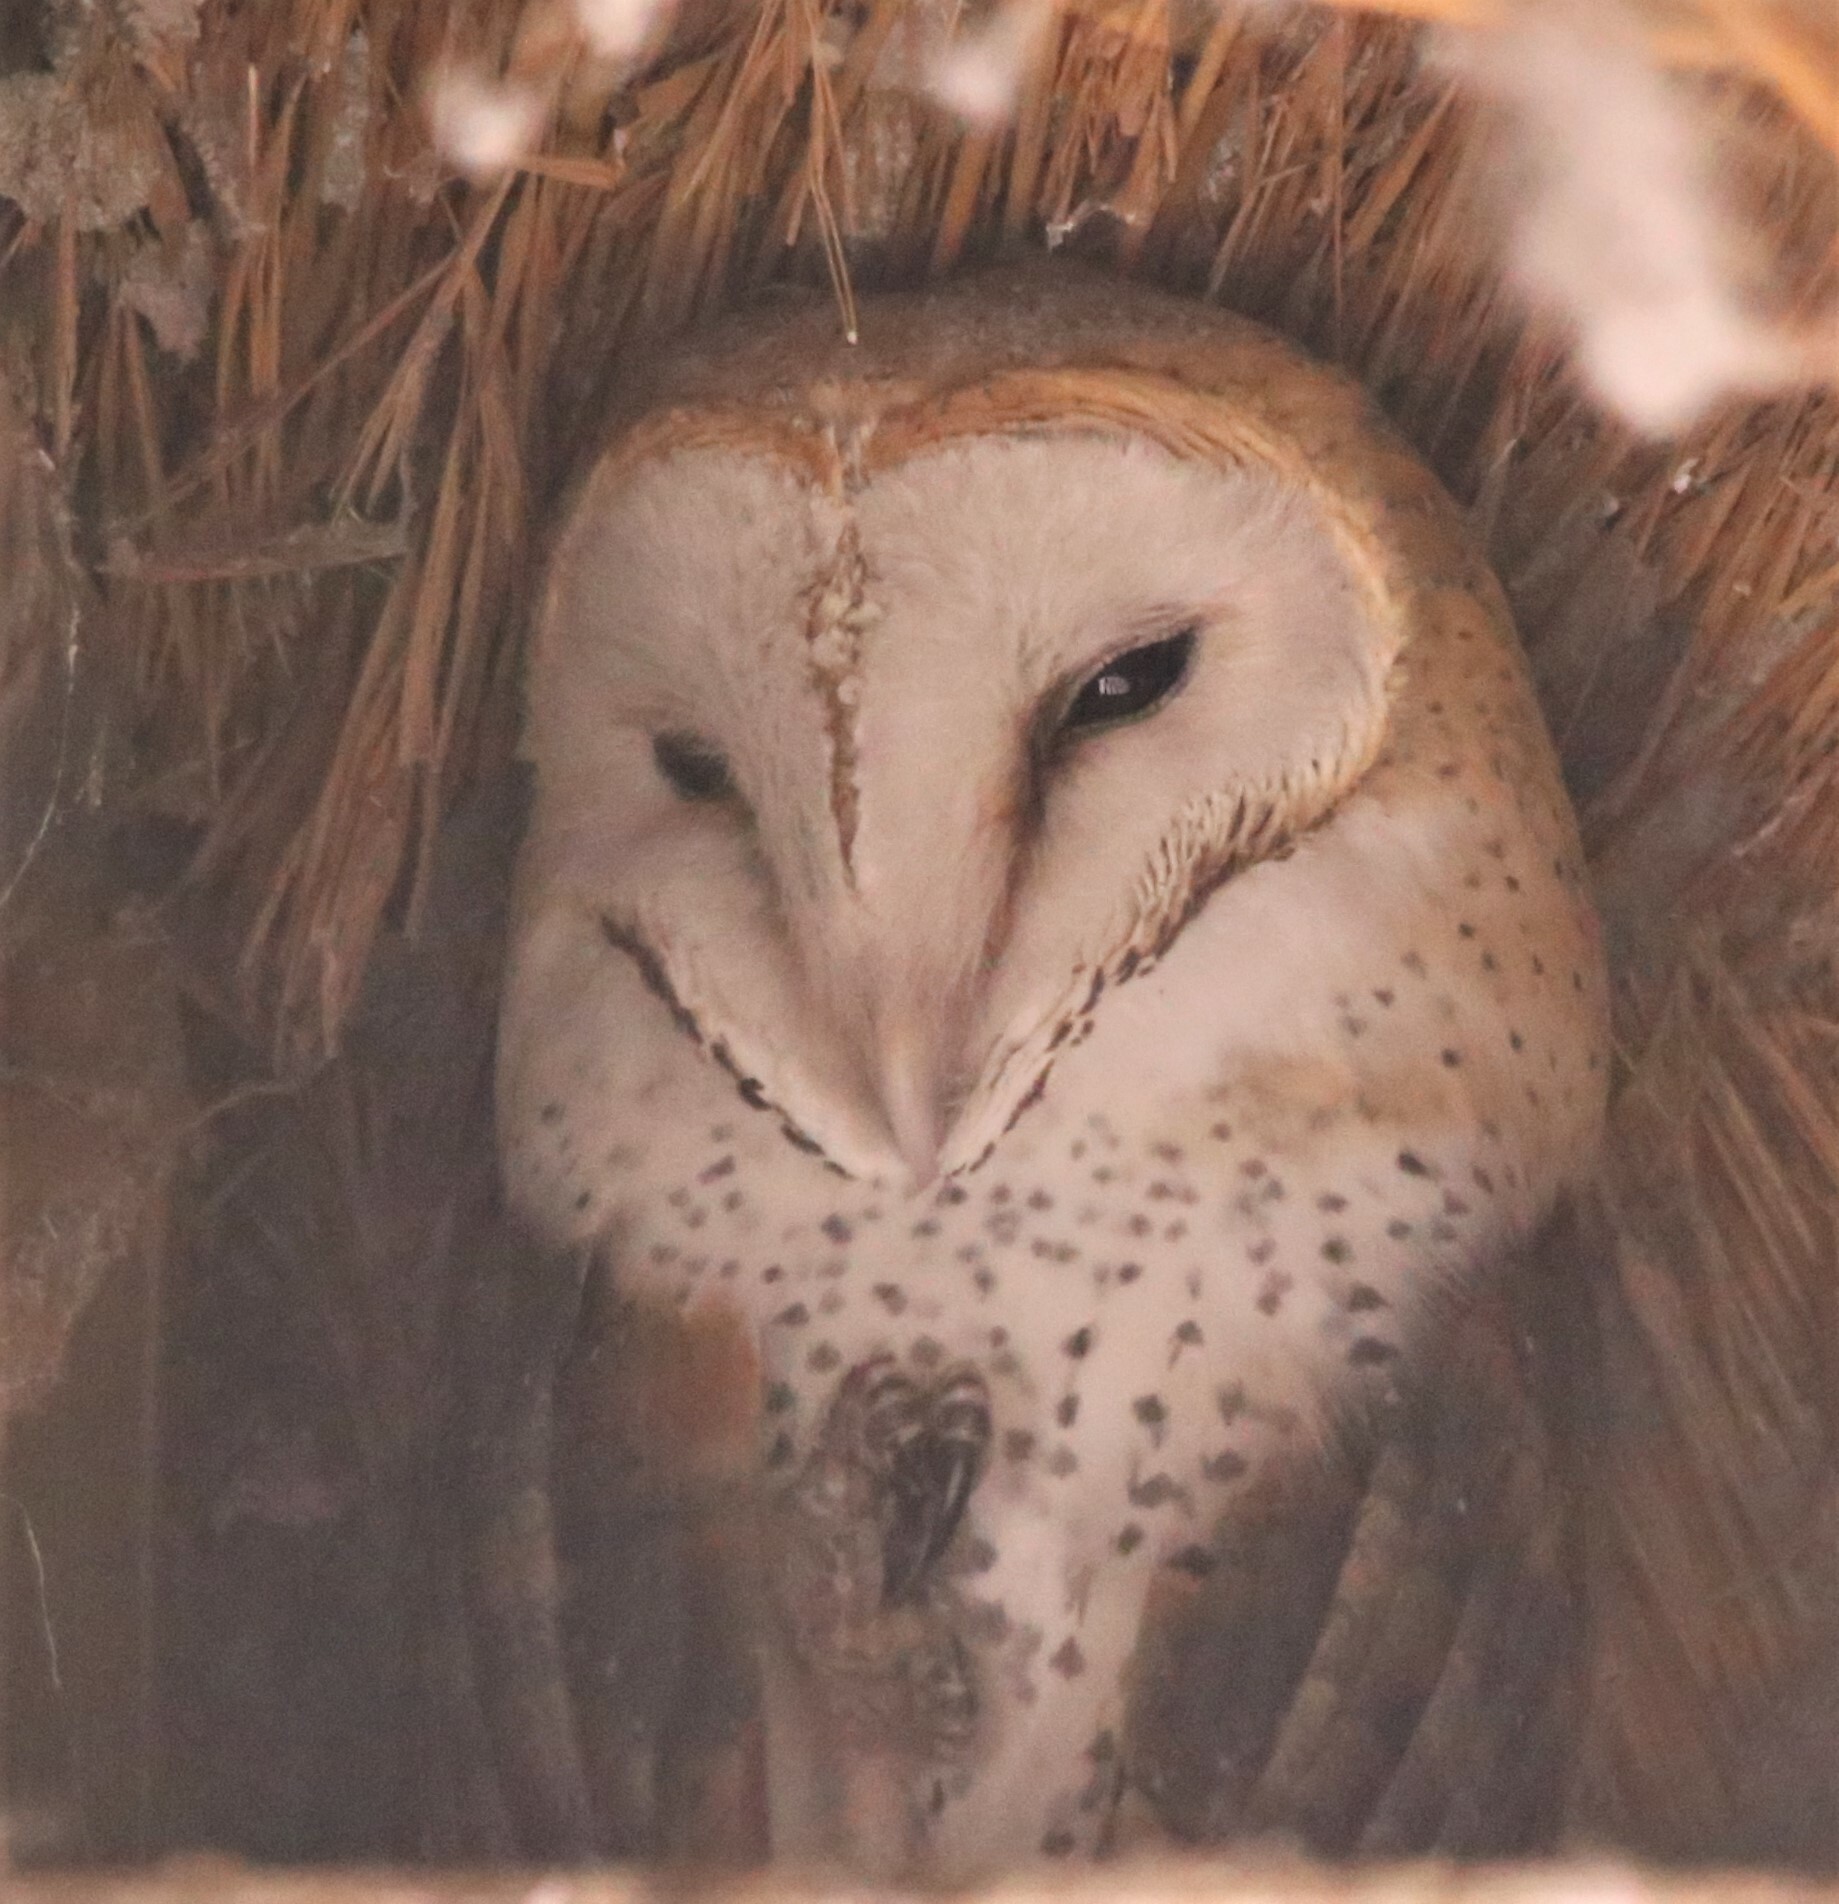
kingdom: Animalia
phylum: Chordata
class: Aves
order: Strigiformes
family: Tytonidae
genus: Tyto
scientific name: Tyto alba
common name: Barn owl
